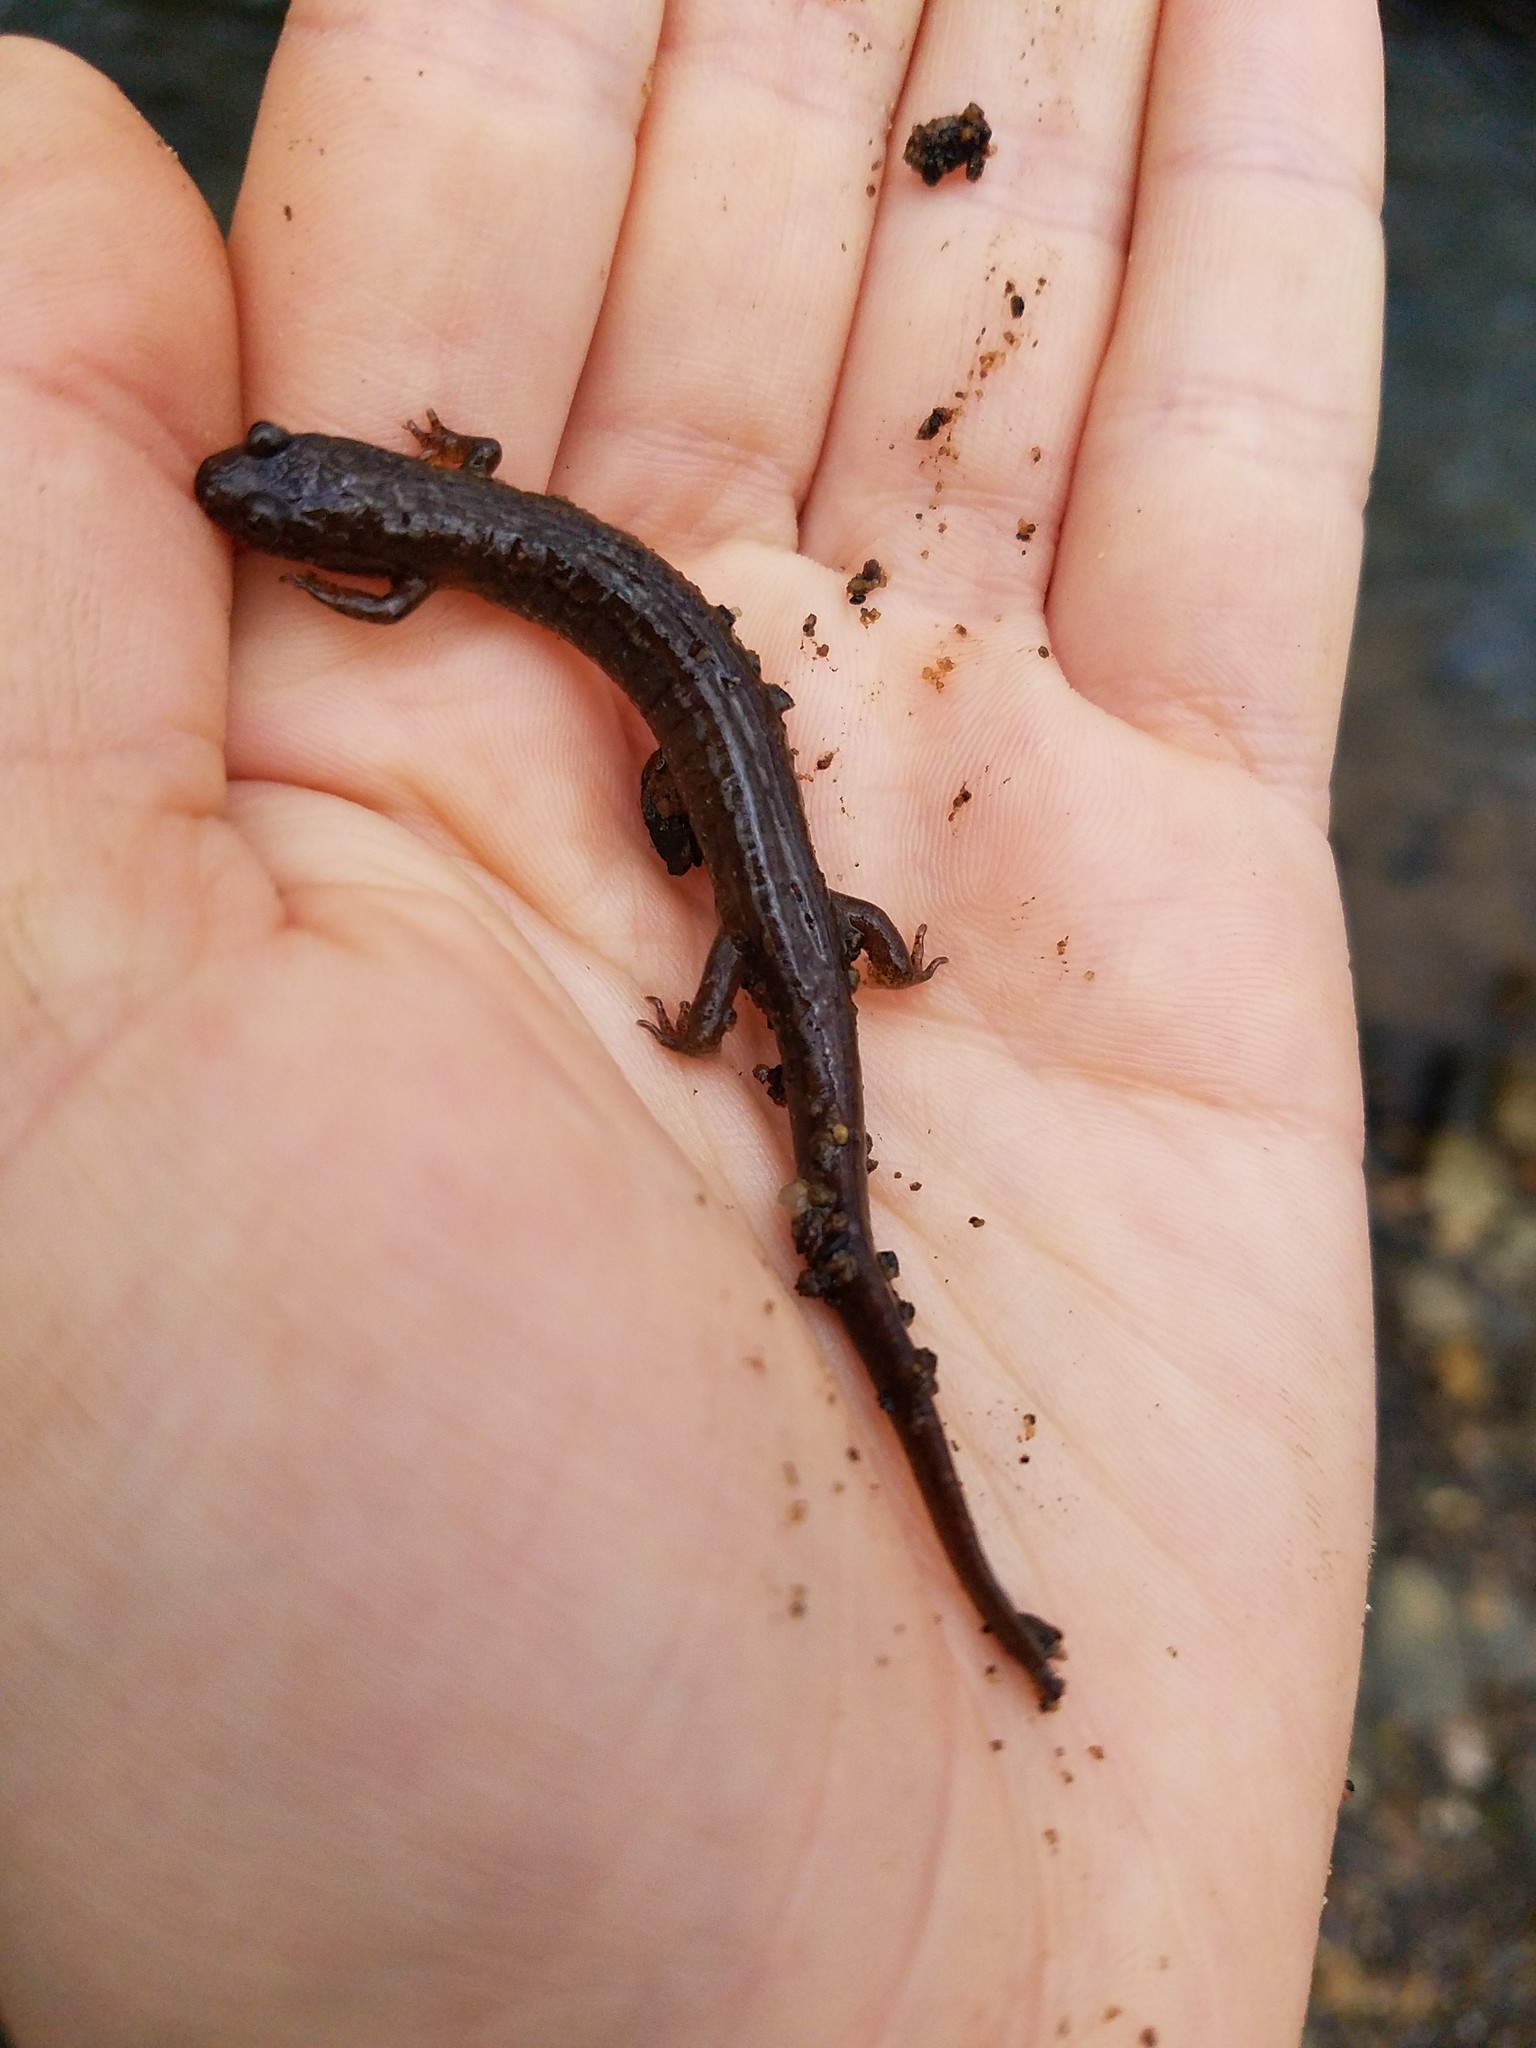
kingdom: Animalia
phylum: Chordata
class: Amphibia
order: Caudata
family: Plethodontidae
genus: Desmognathus
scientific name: Desmognathus ochrophaeus
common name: Allegheny mountain dusky salamander
